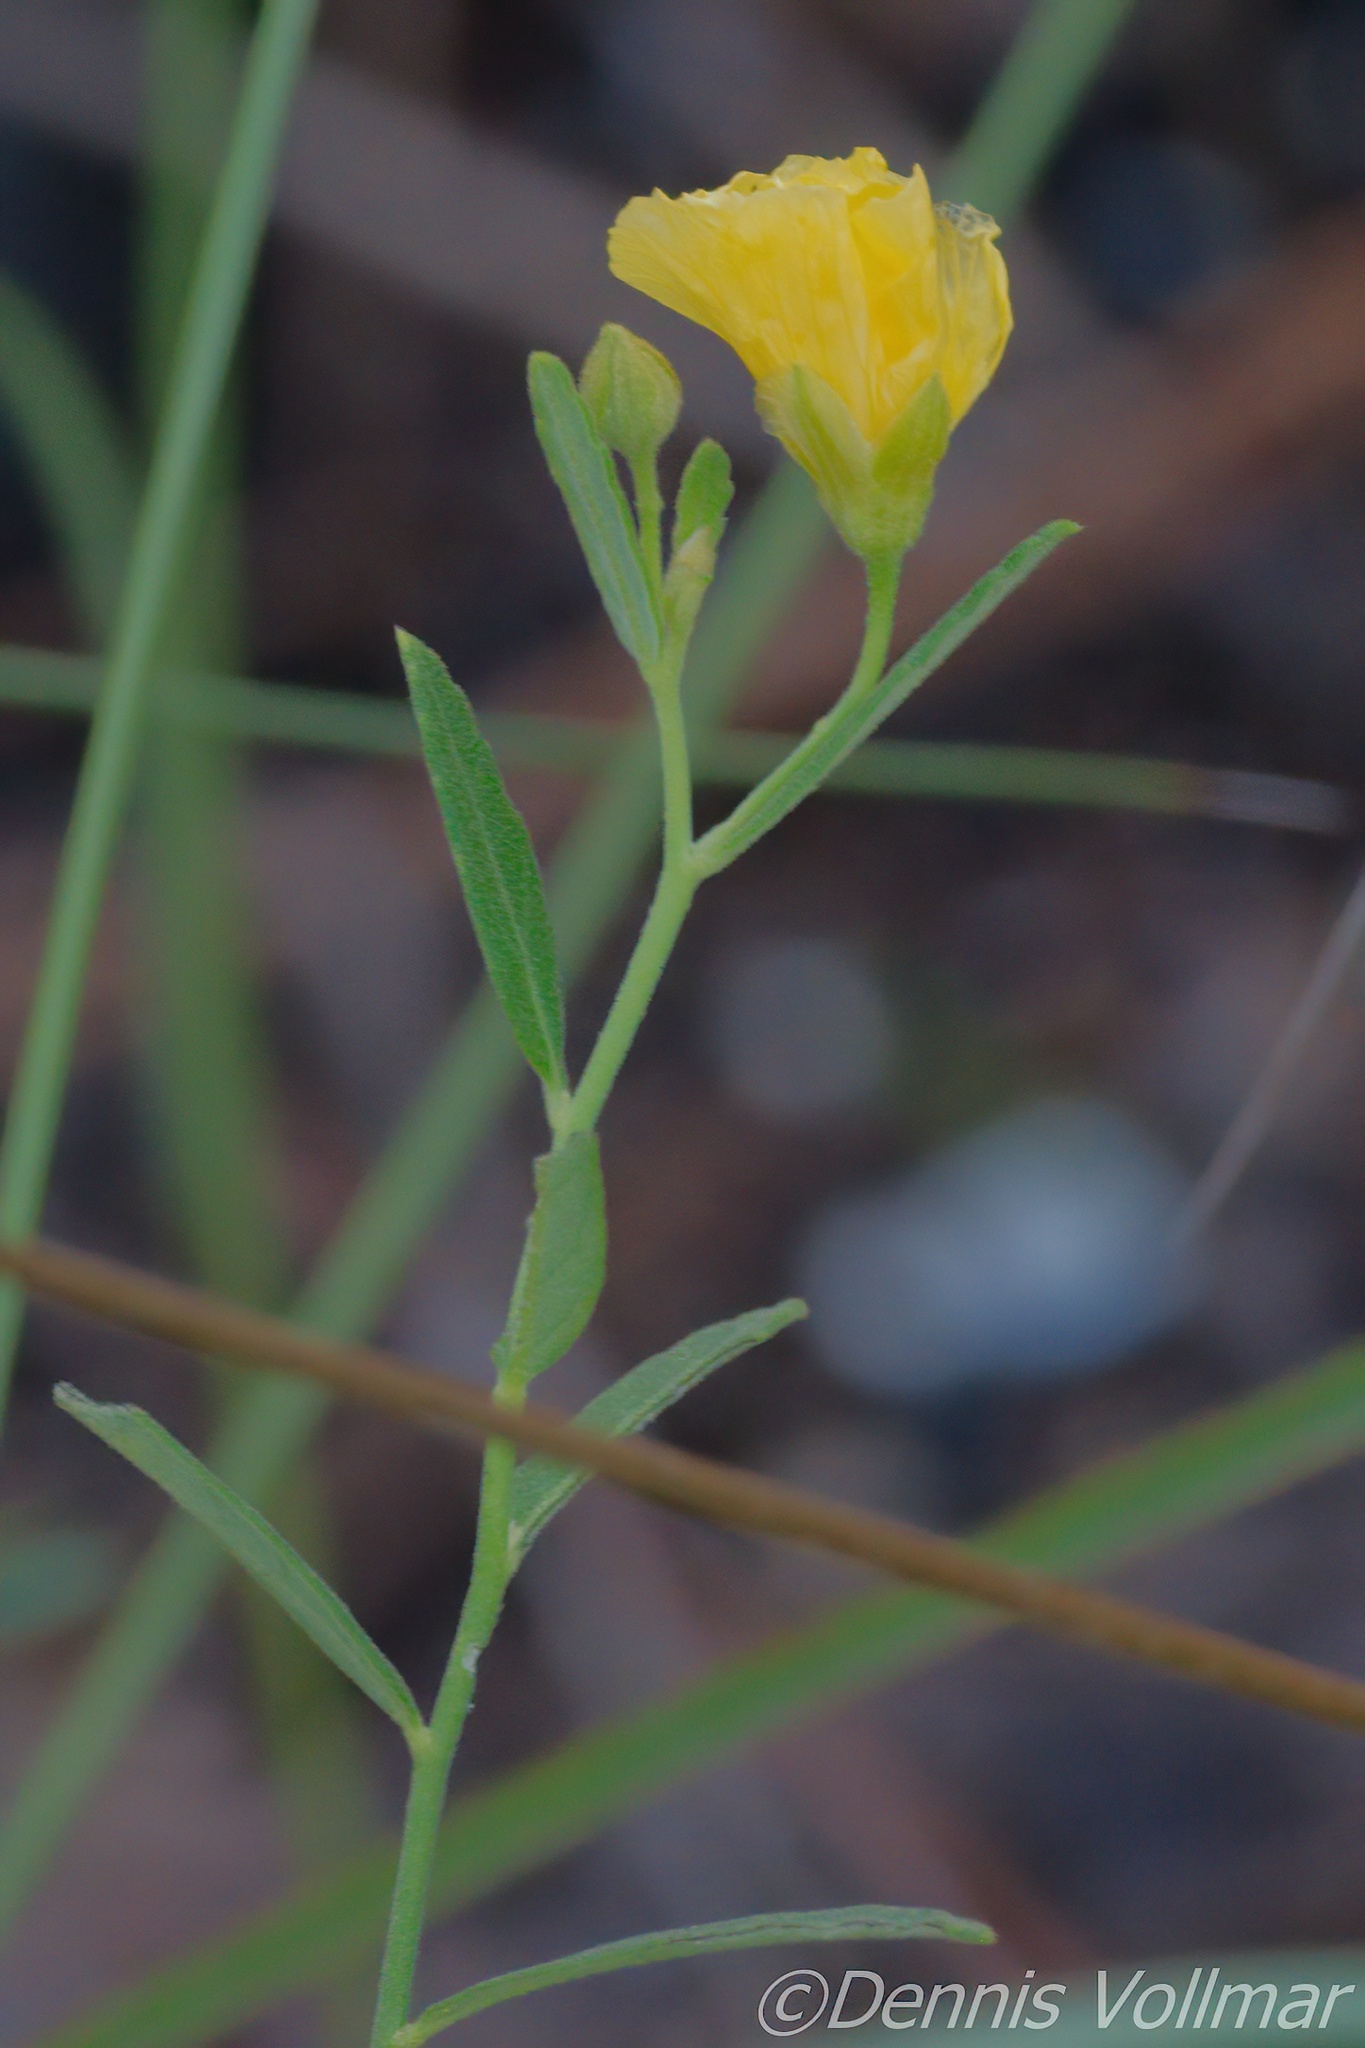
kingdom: Plantae
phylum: Tracheophyta
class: Magnoliopsida
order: Malpighiales
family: Turneraceae
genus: Piriqueta
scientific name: Piriqueta cistoides
